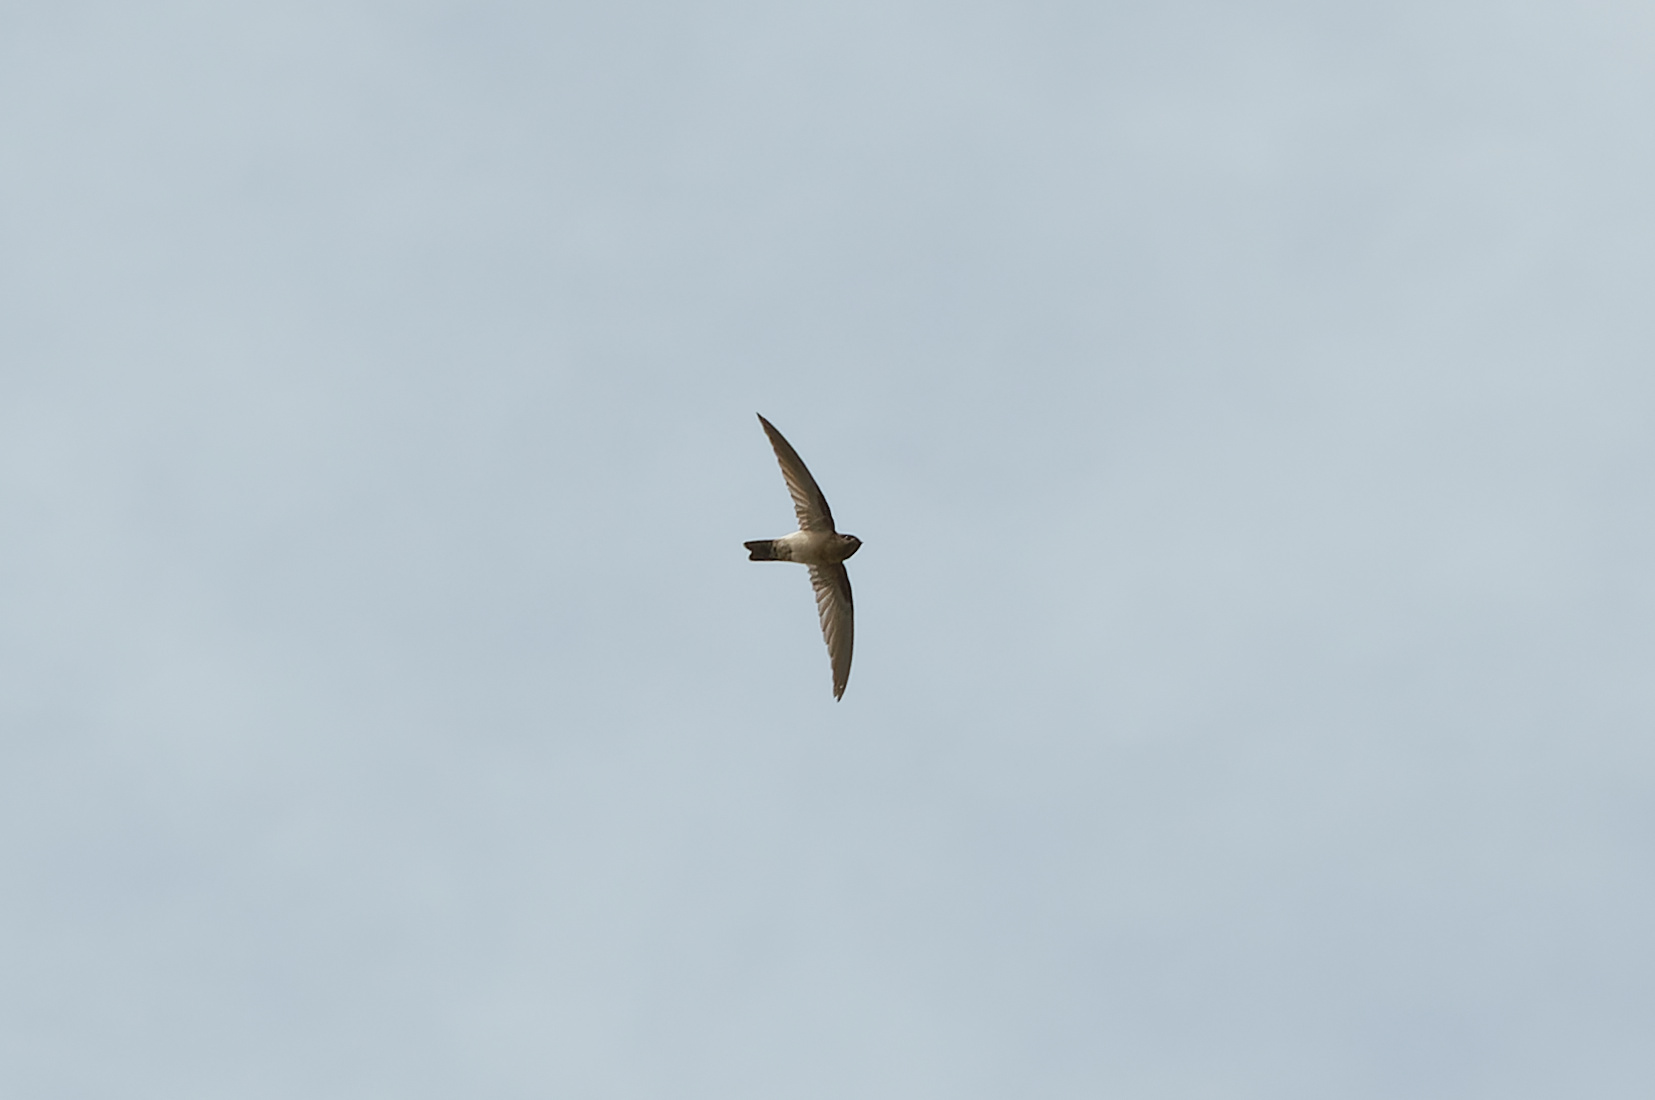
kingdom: Animalia
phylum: Chordata
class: Aves
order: Apodiformes
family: Apodidae
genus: Aerodramus
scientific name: Aerodramus terraereginae
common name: Australian swiftlet
